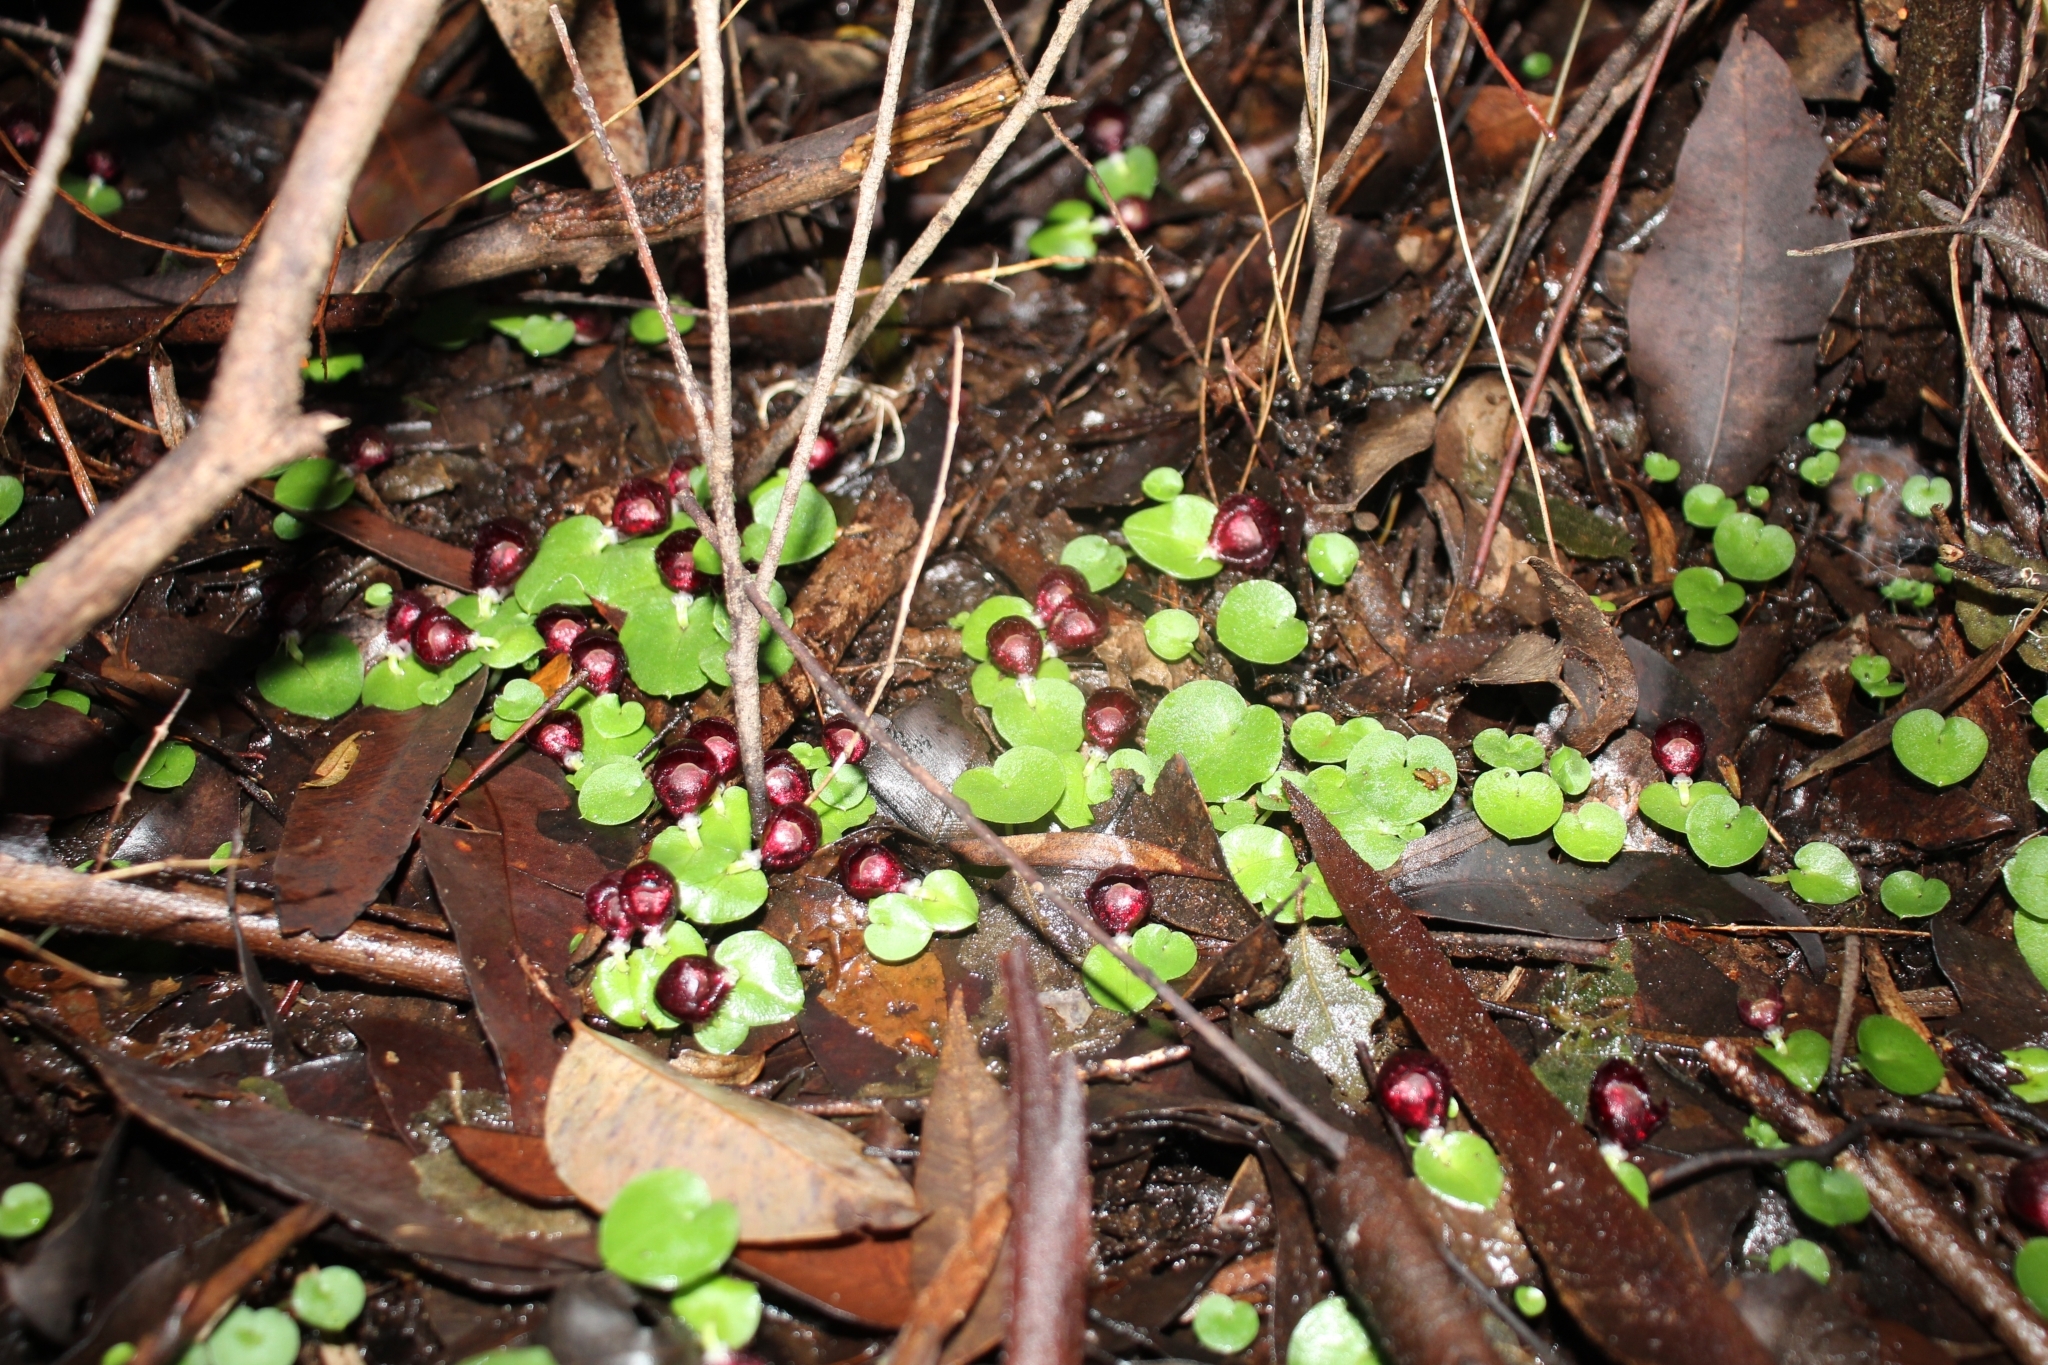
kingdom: Plantae
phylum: Tracheophyta
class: Liliopsida
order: Asparagales
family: Orchidaceae
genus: Corybas
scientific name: Corybas recurvus
